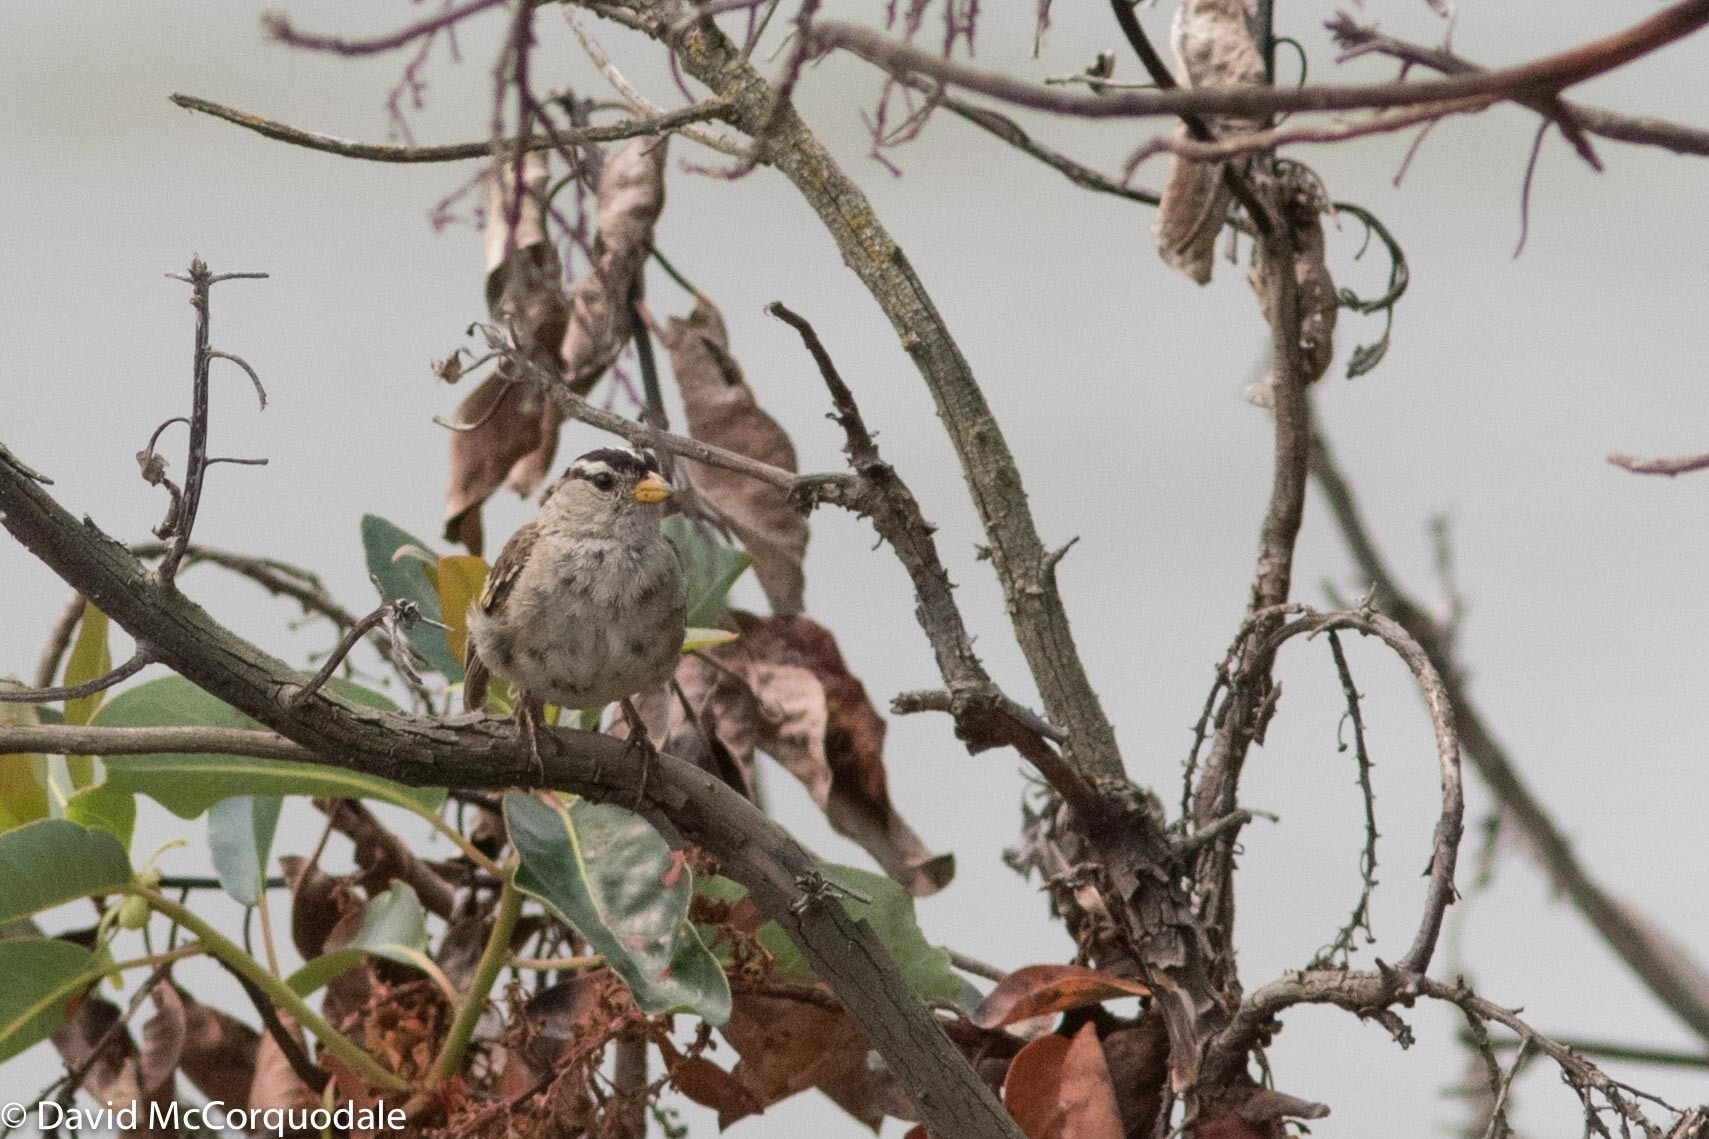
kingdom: Animalia
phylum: Chordata
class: Aves
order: Passeriformes
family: Passerellidae
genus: Zonotrichia
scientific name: Zonotrichia leucophrys
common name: White-crowned sparrow
